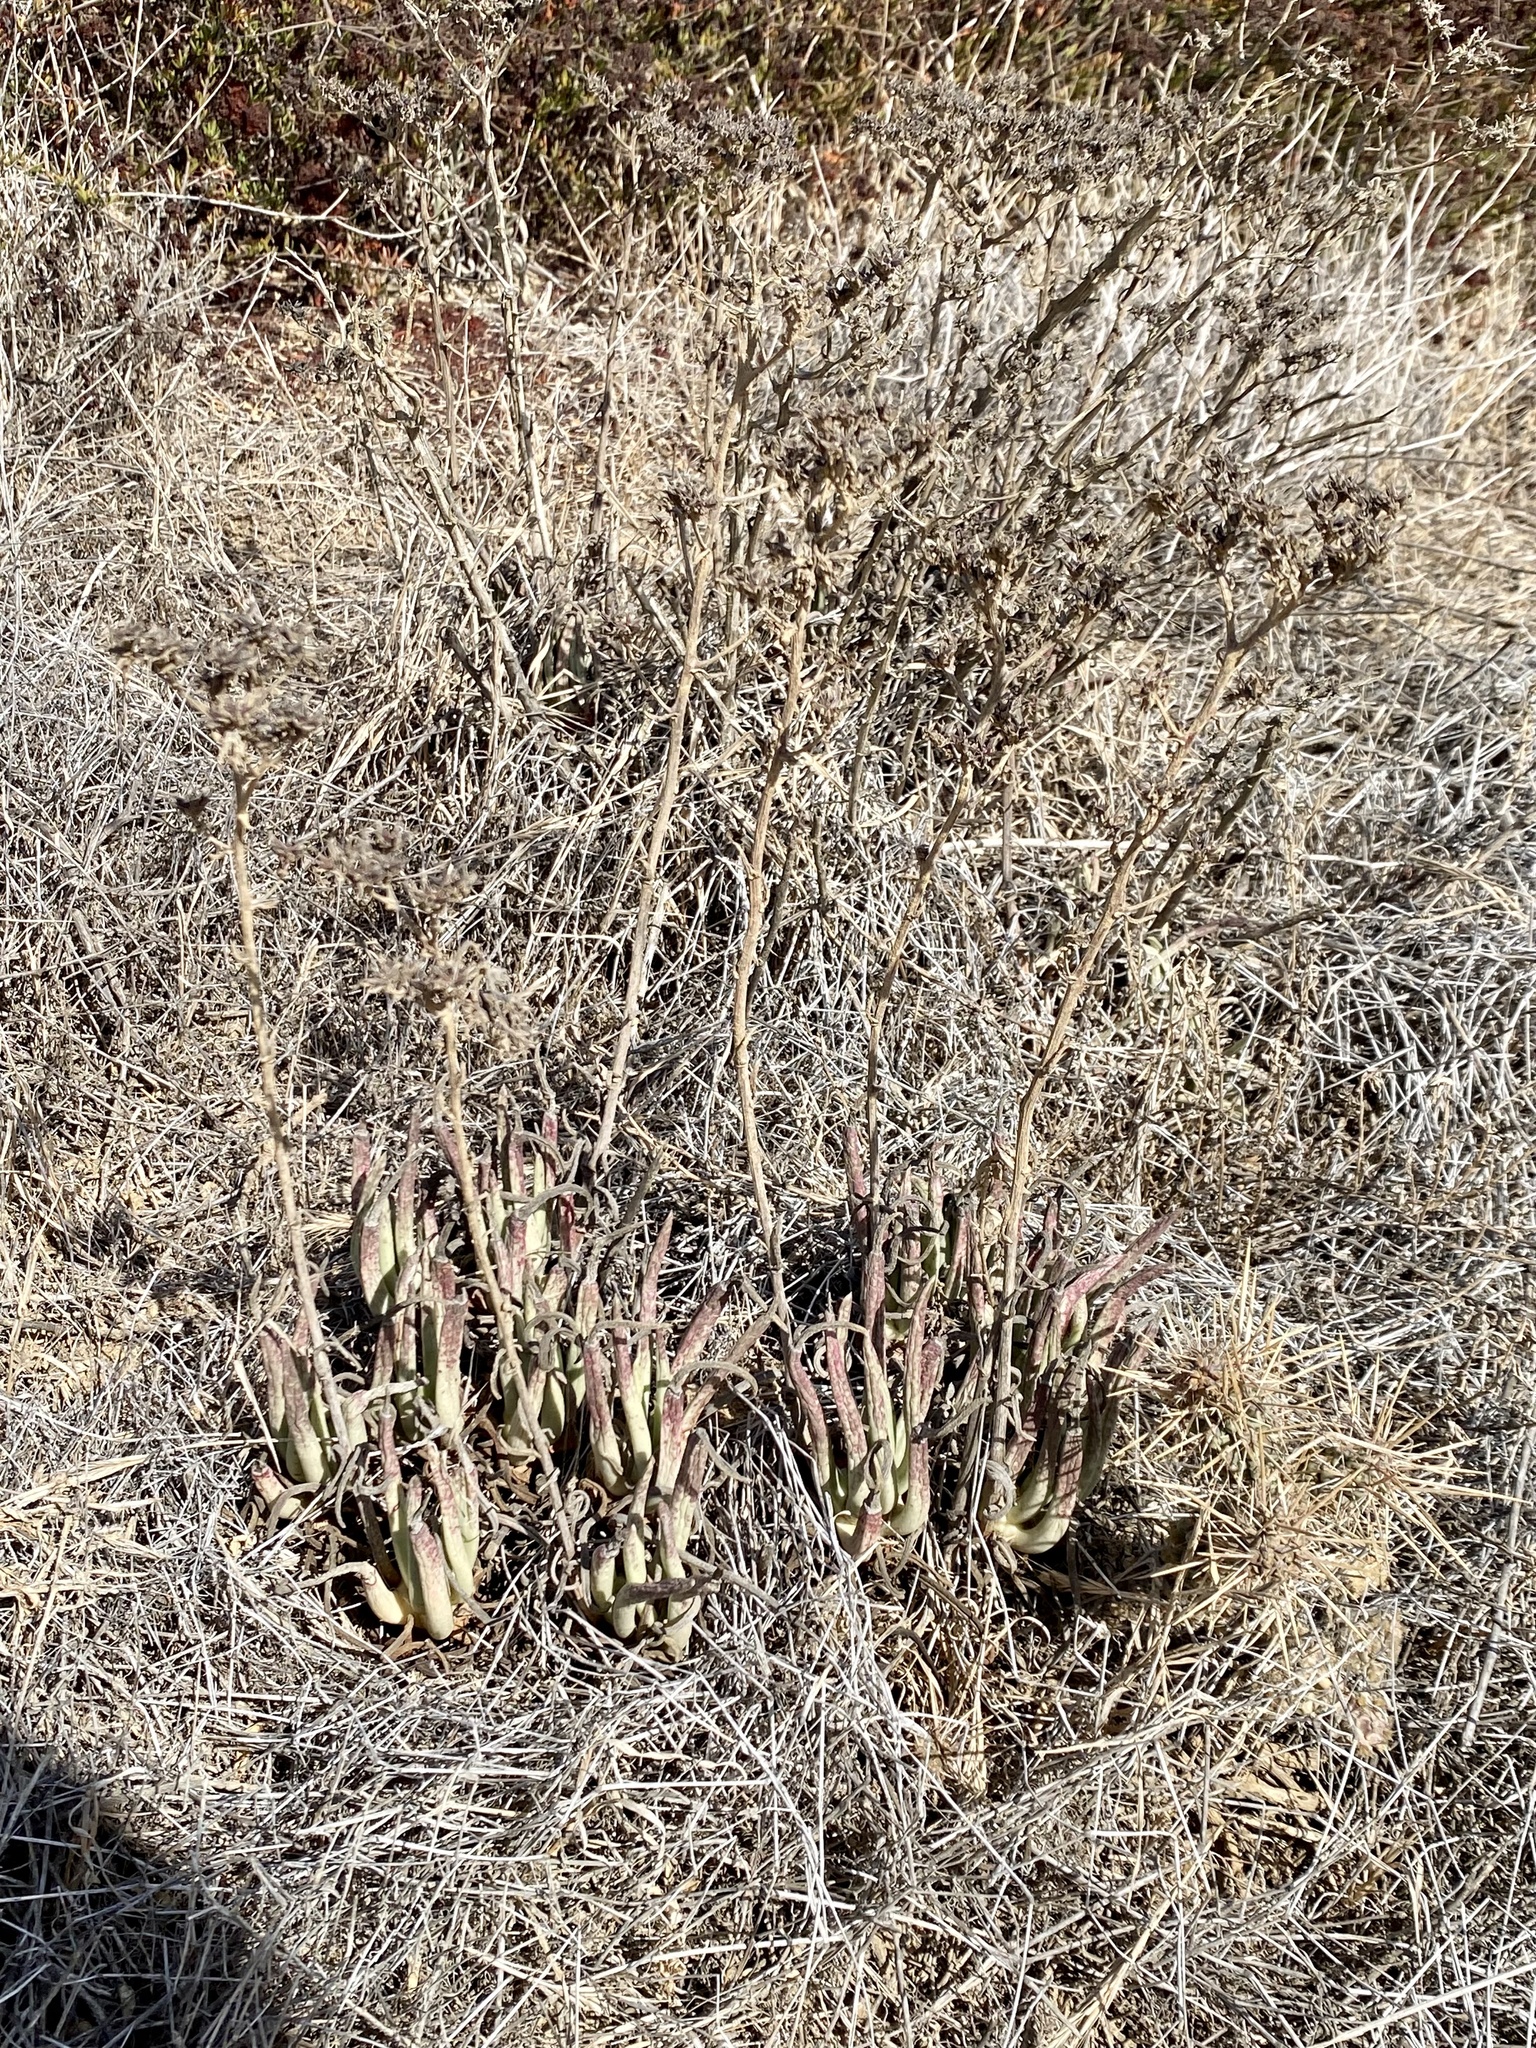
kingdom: Plantae
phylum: Tracheophyta
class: Magnoliopsida
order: Saxifragales
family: Crassulaceae
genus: Dudleya
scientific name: Dudleya edulis
